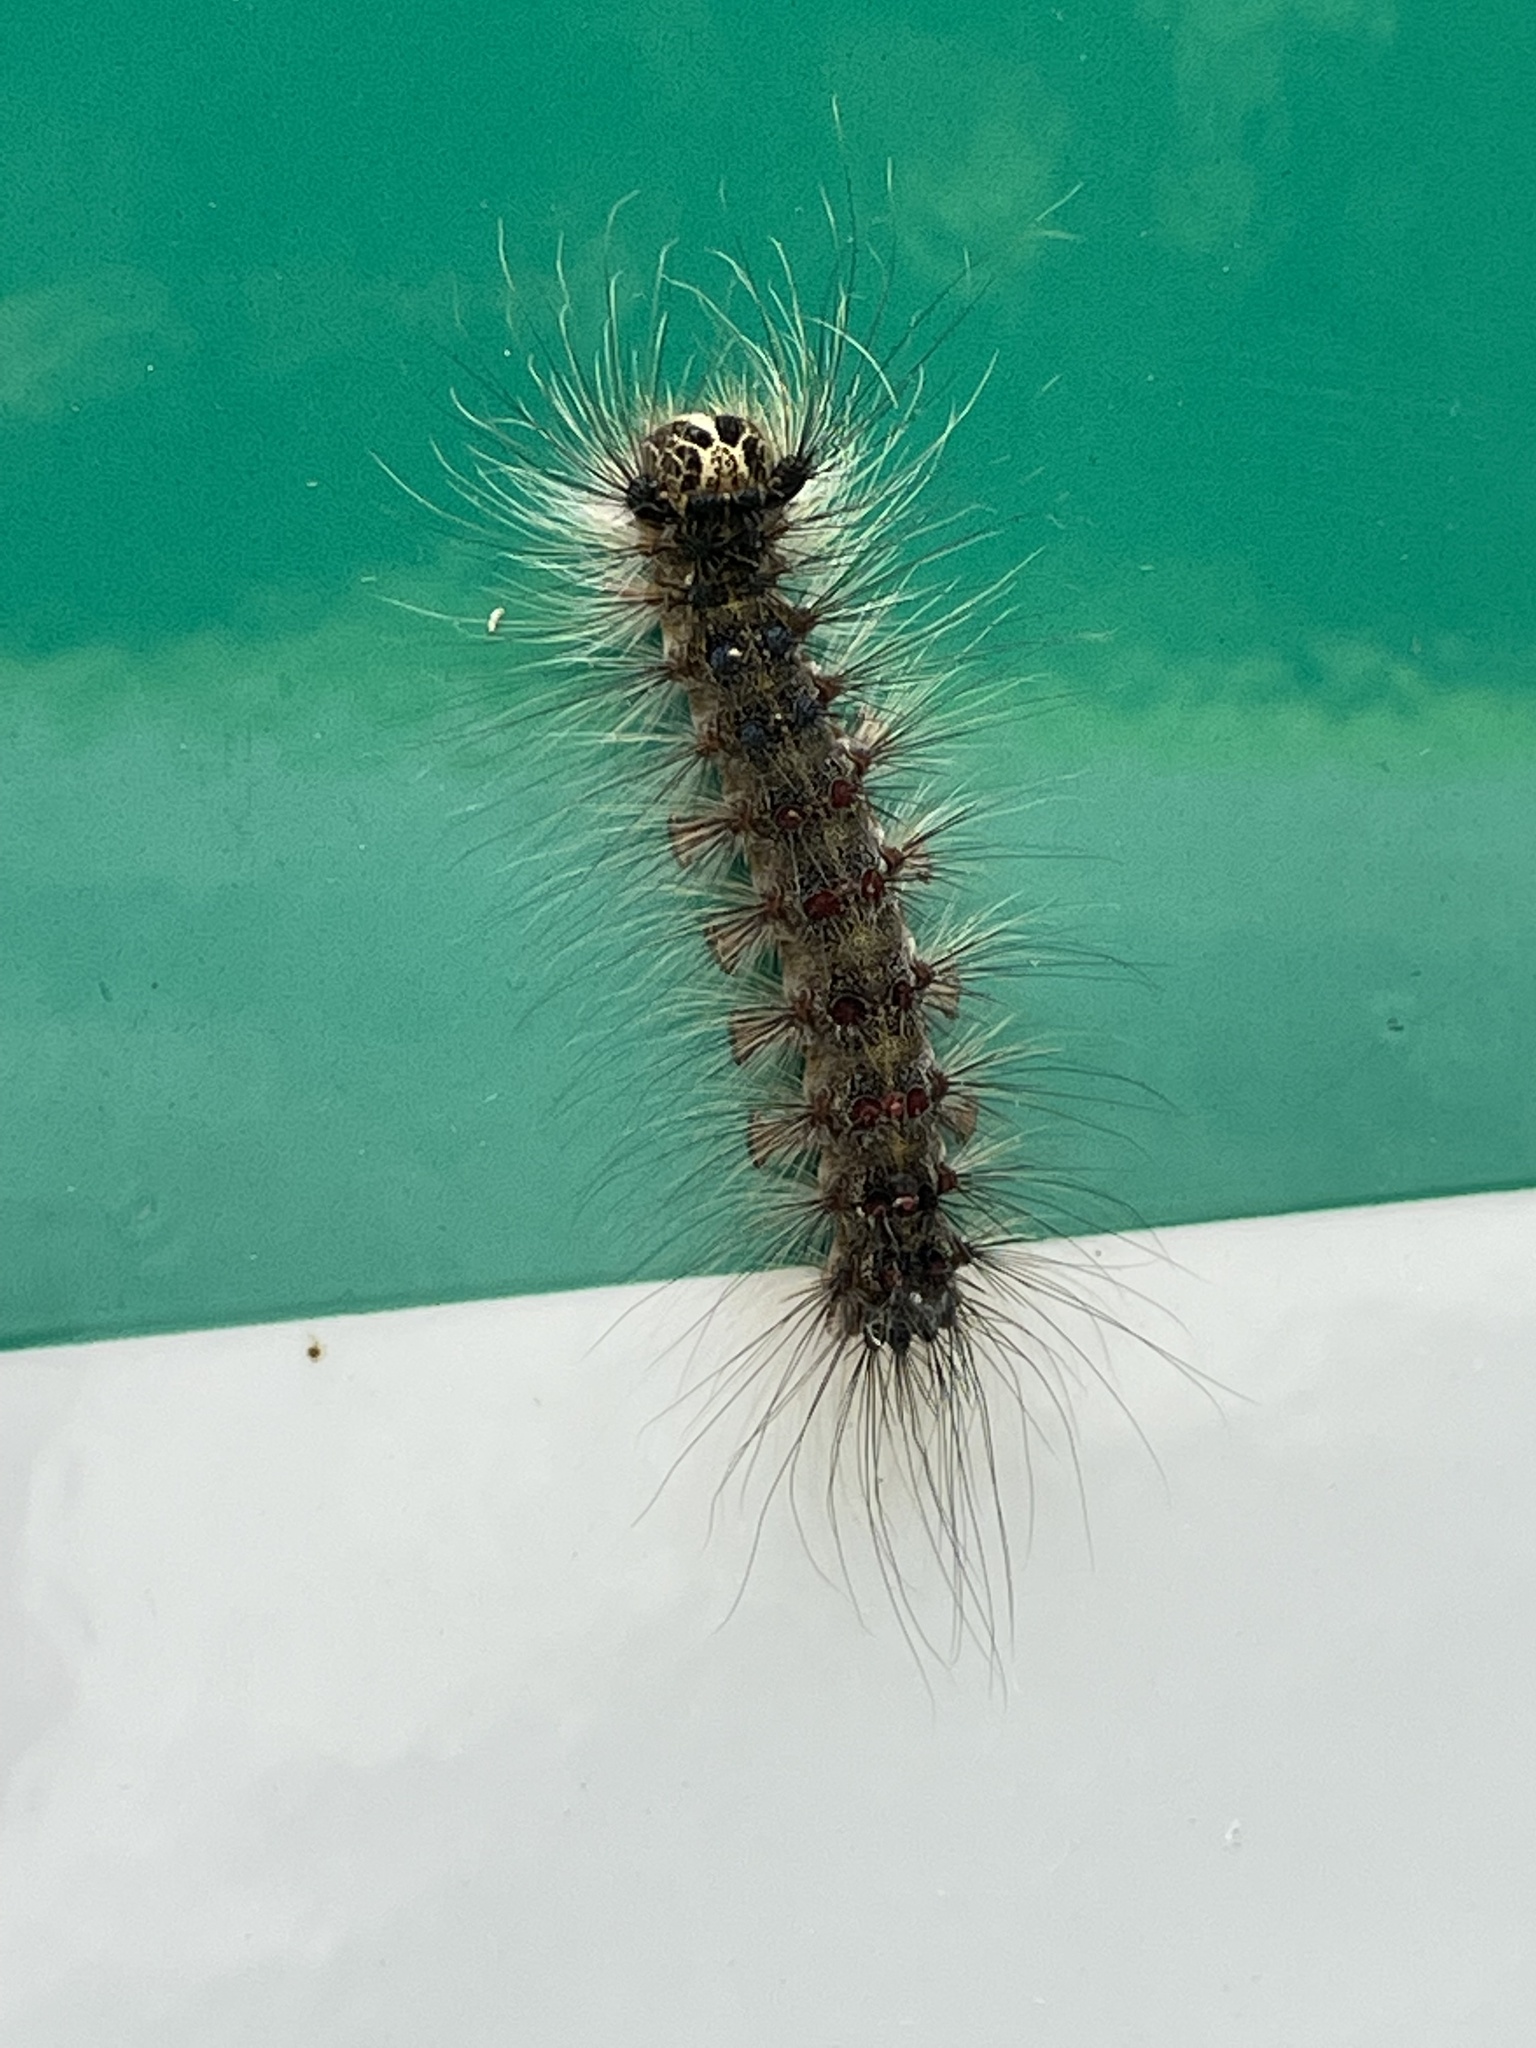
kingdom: Animalia
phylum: Arthropoda
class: Insecta
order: Lepidoptera
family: Erebidae
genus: Lymantria
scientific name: Lymantria dispar
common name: Gypsy moth
